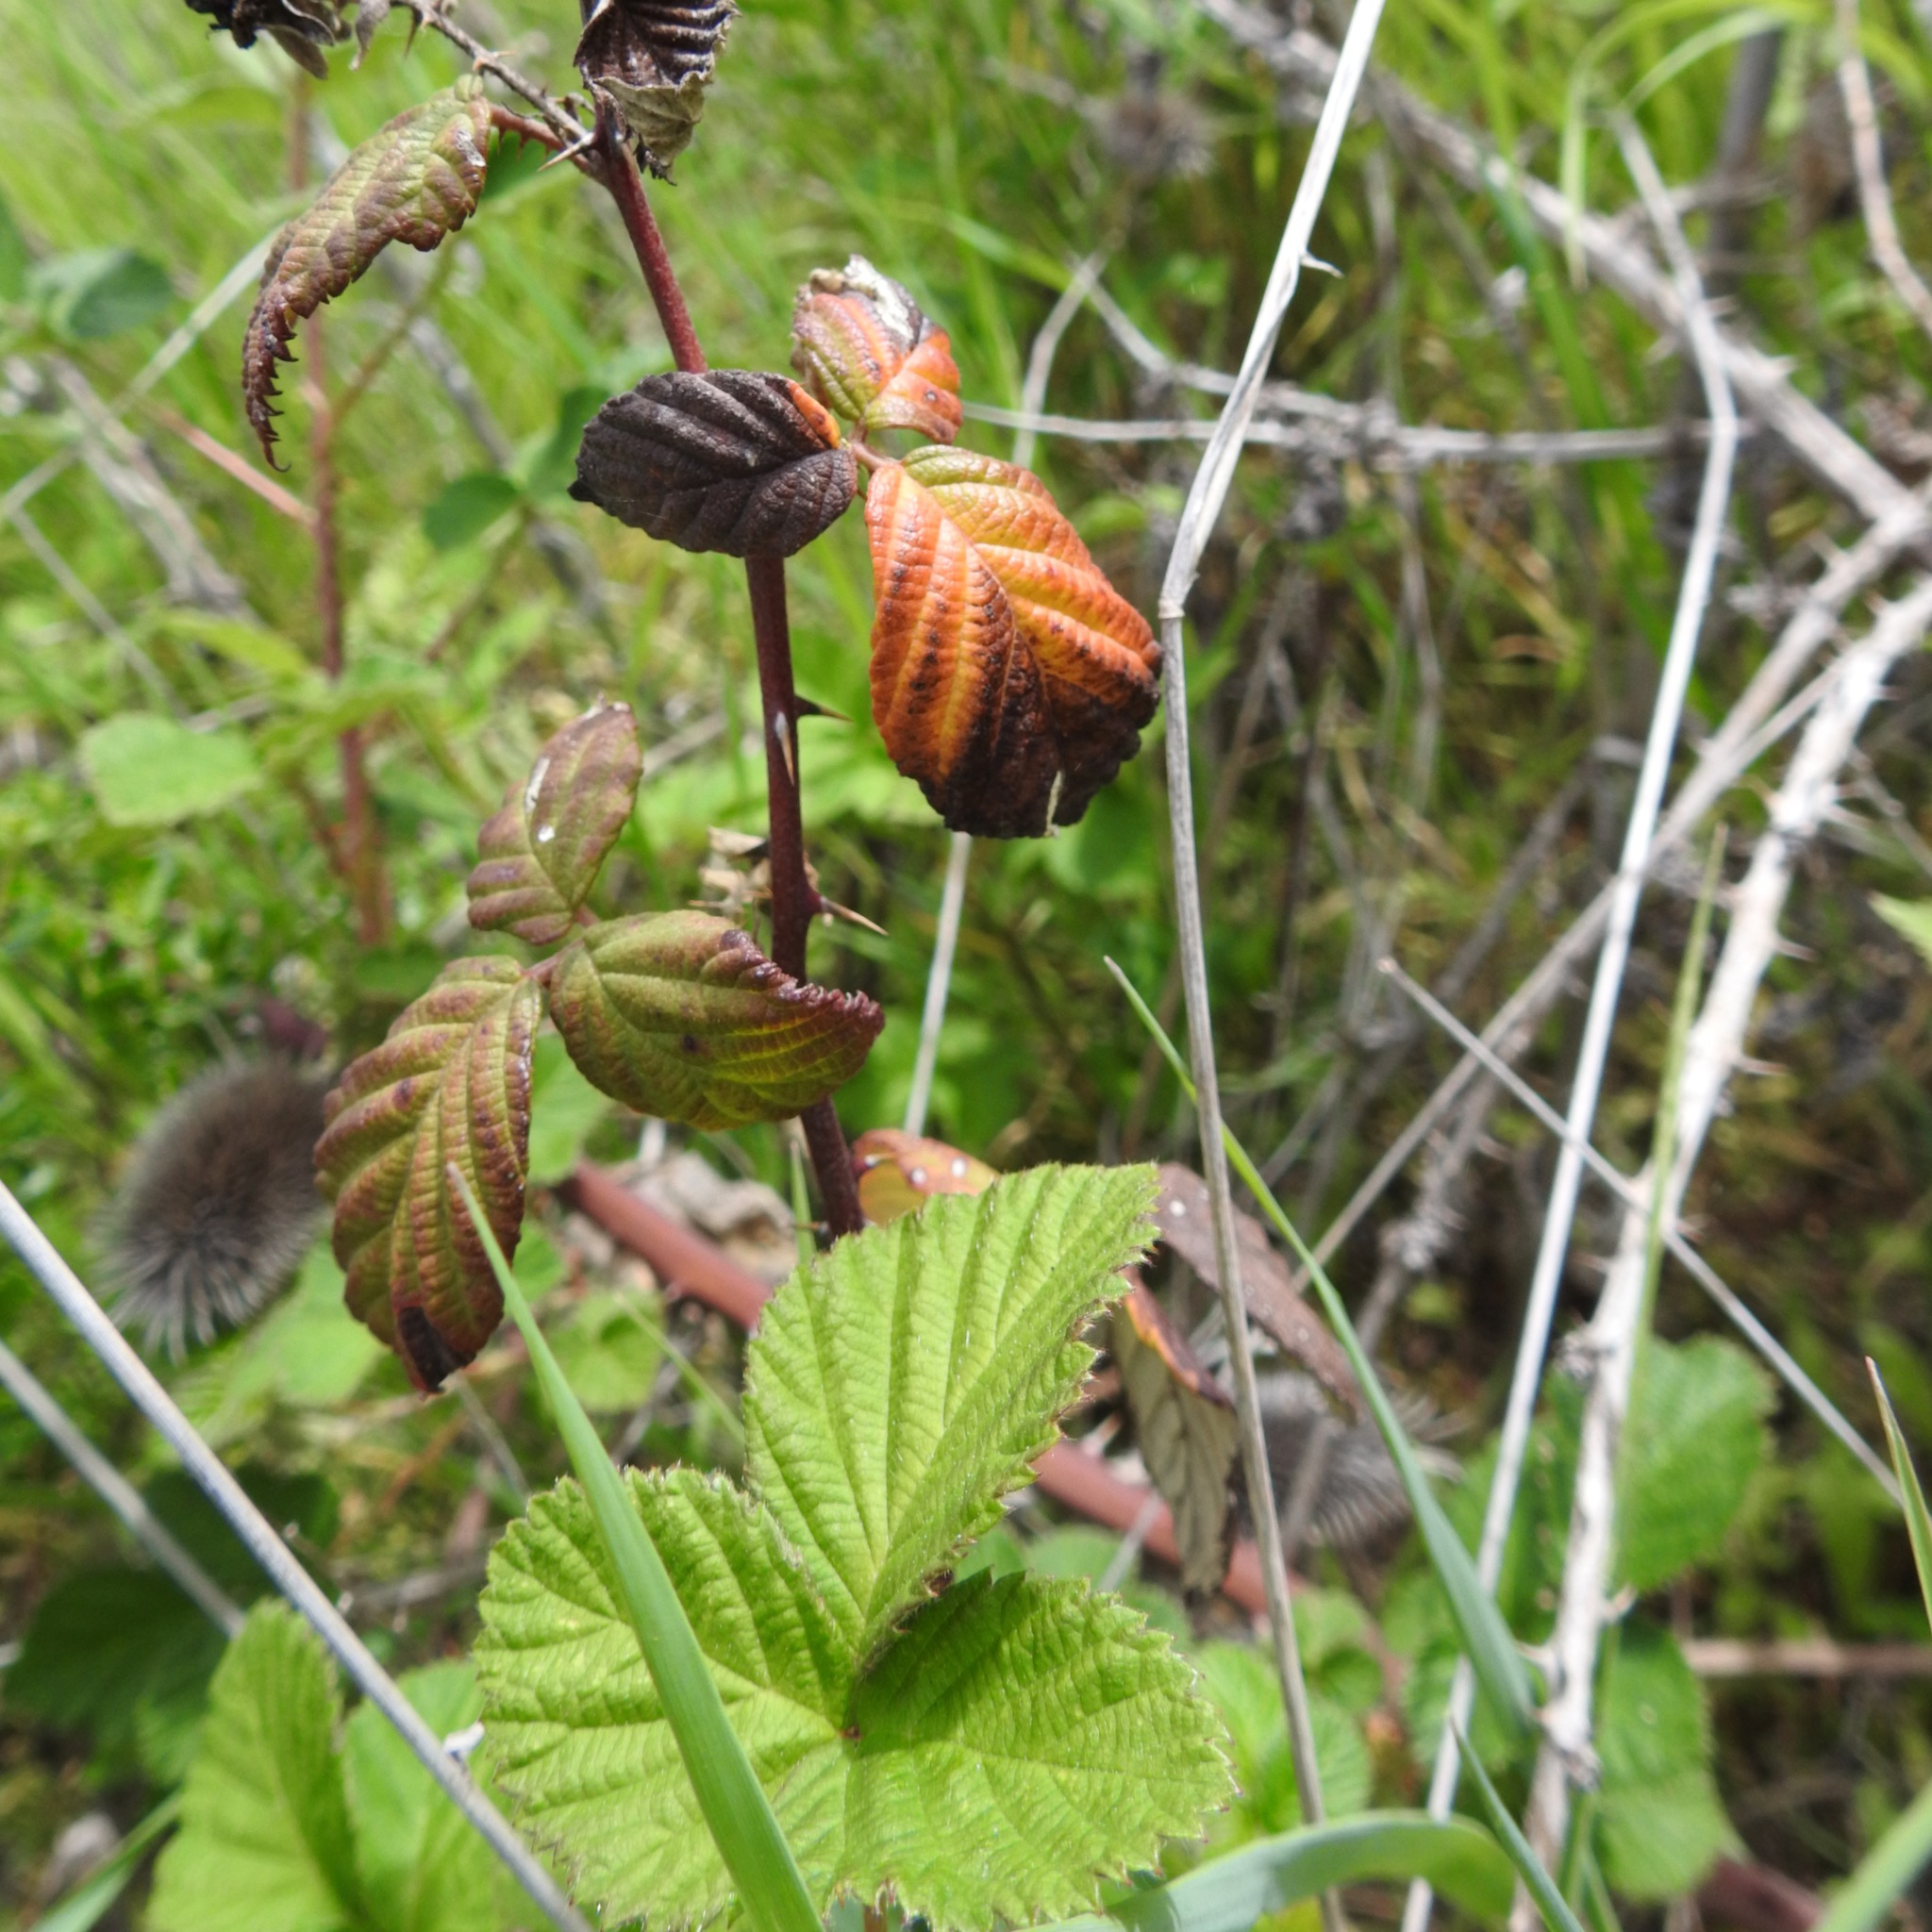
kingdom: Plantae
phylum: Tracheophyta
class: Magnoliopsida
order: Rosales
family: Rosaceae
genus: Rubus
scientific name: Rubus ursinus
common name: Pacific blackberry
